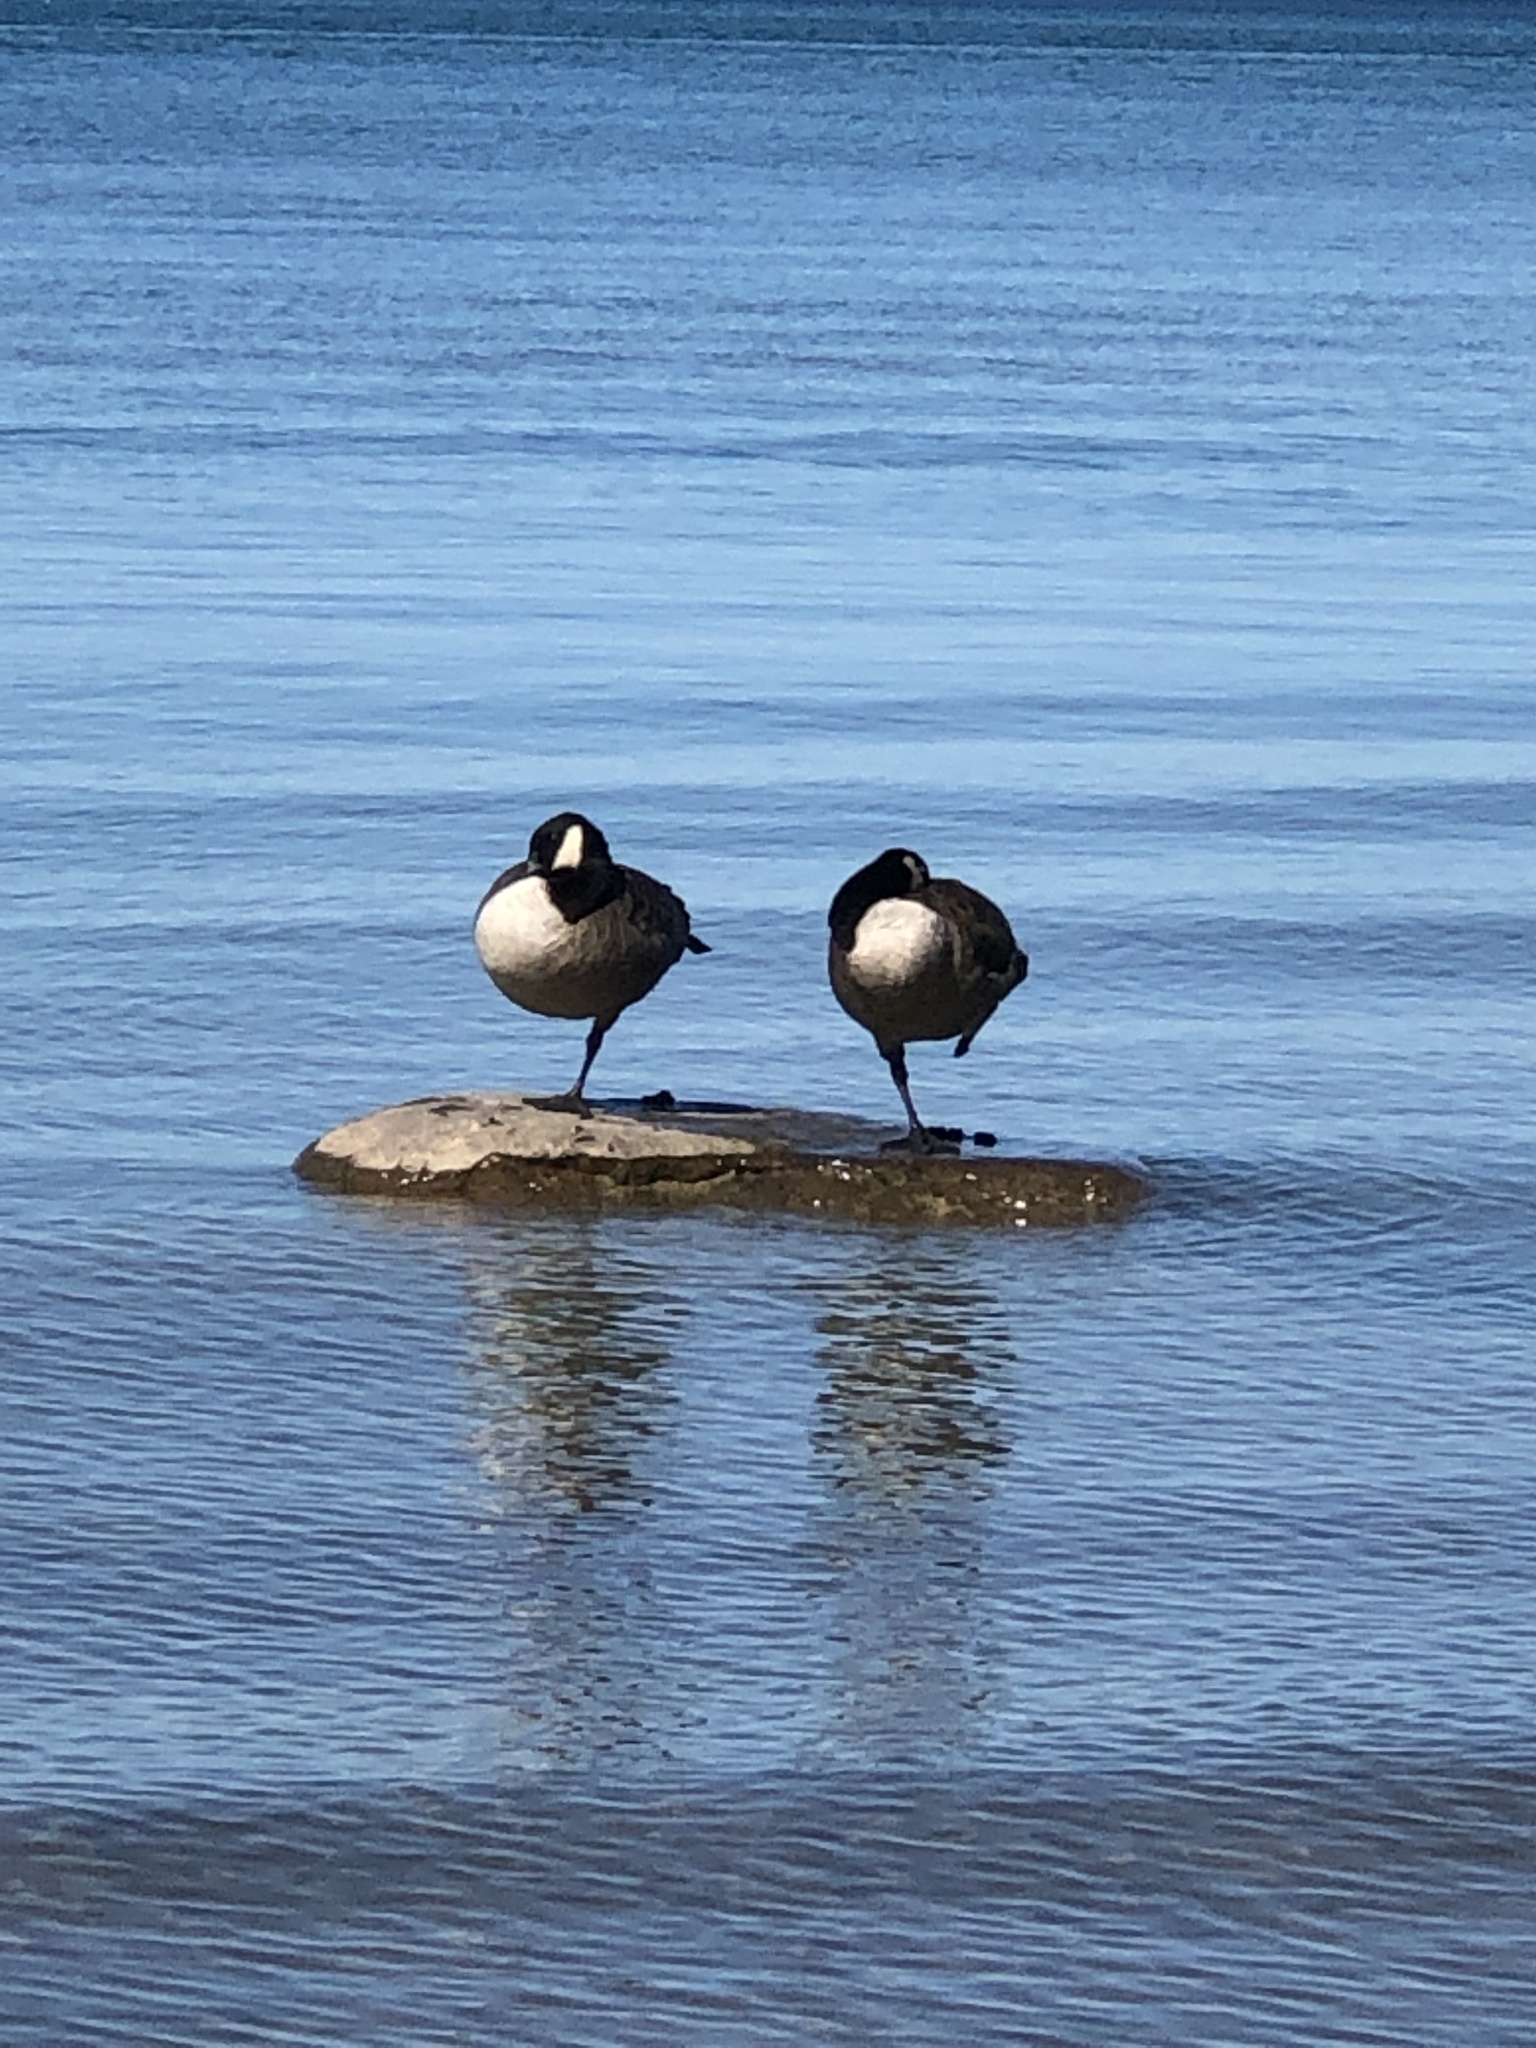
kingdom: Animalia
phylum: Chordata
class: Aves
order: Anseriformes
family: Anatidae
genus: Branta
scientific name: Branta canadensis
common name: Canada goose
